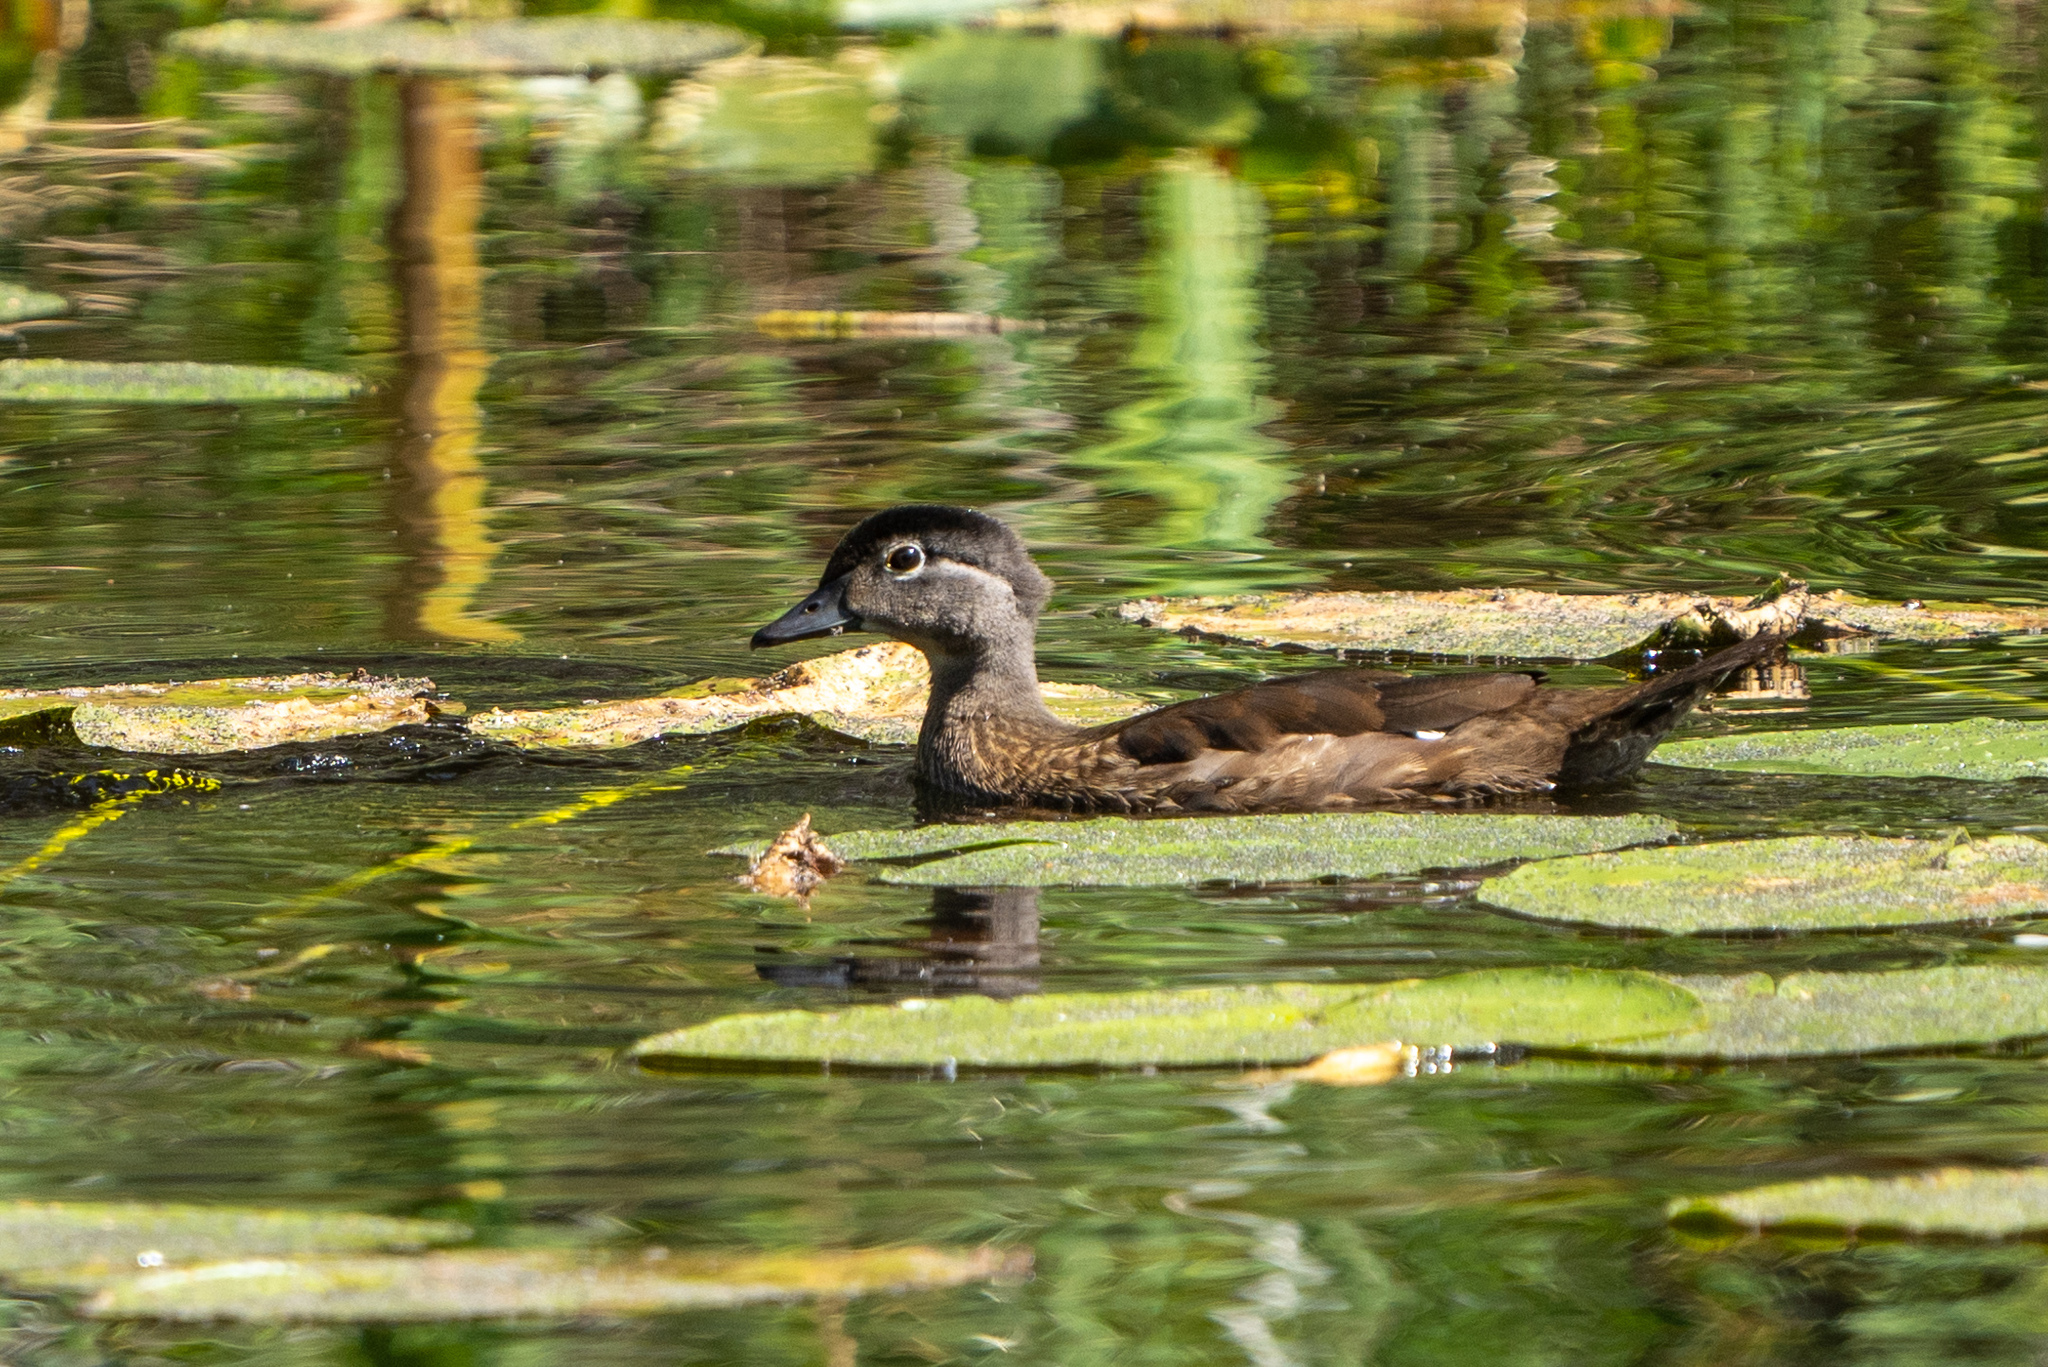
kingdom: Animalia
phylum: Chordata
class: Aves
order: Anseriformes
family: Anatidae
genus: Aix
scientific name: Aix sponsa
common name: Wood duck
